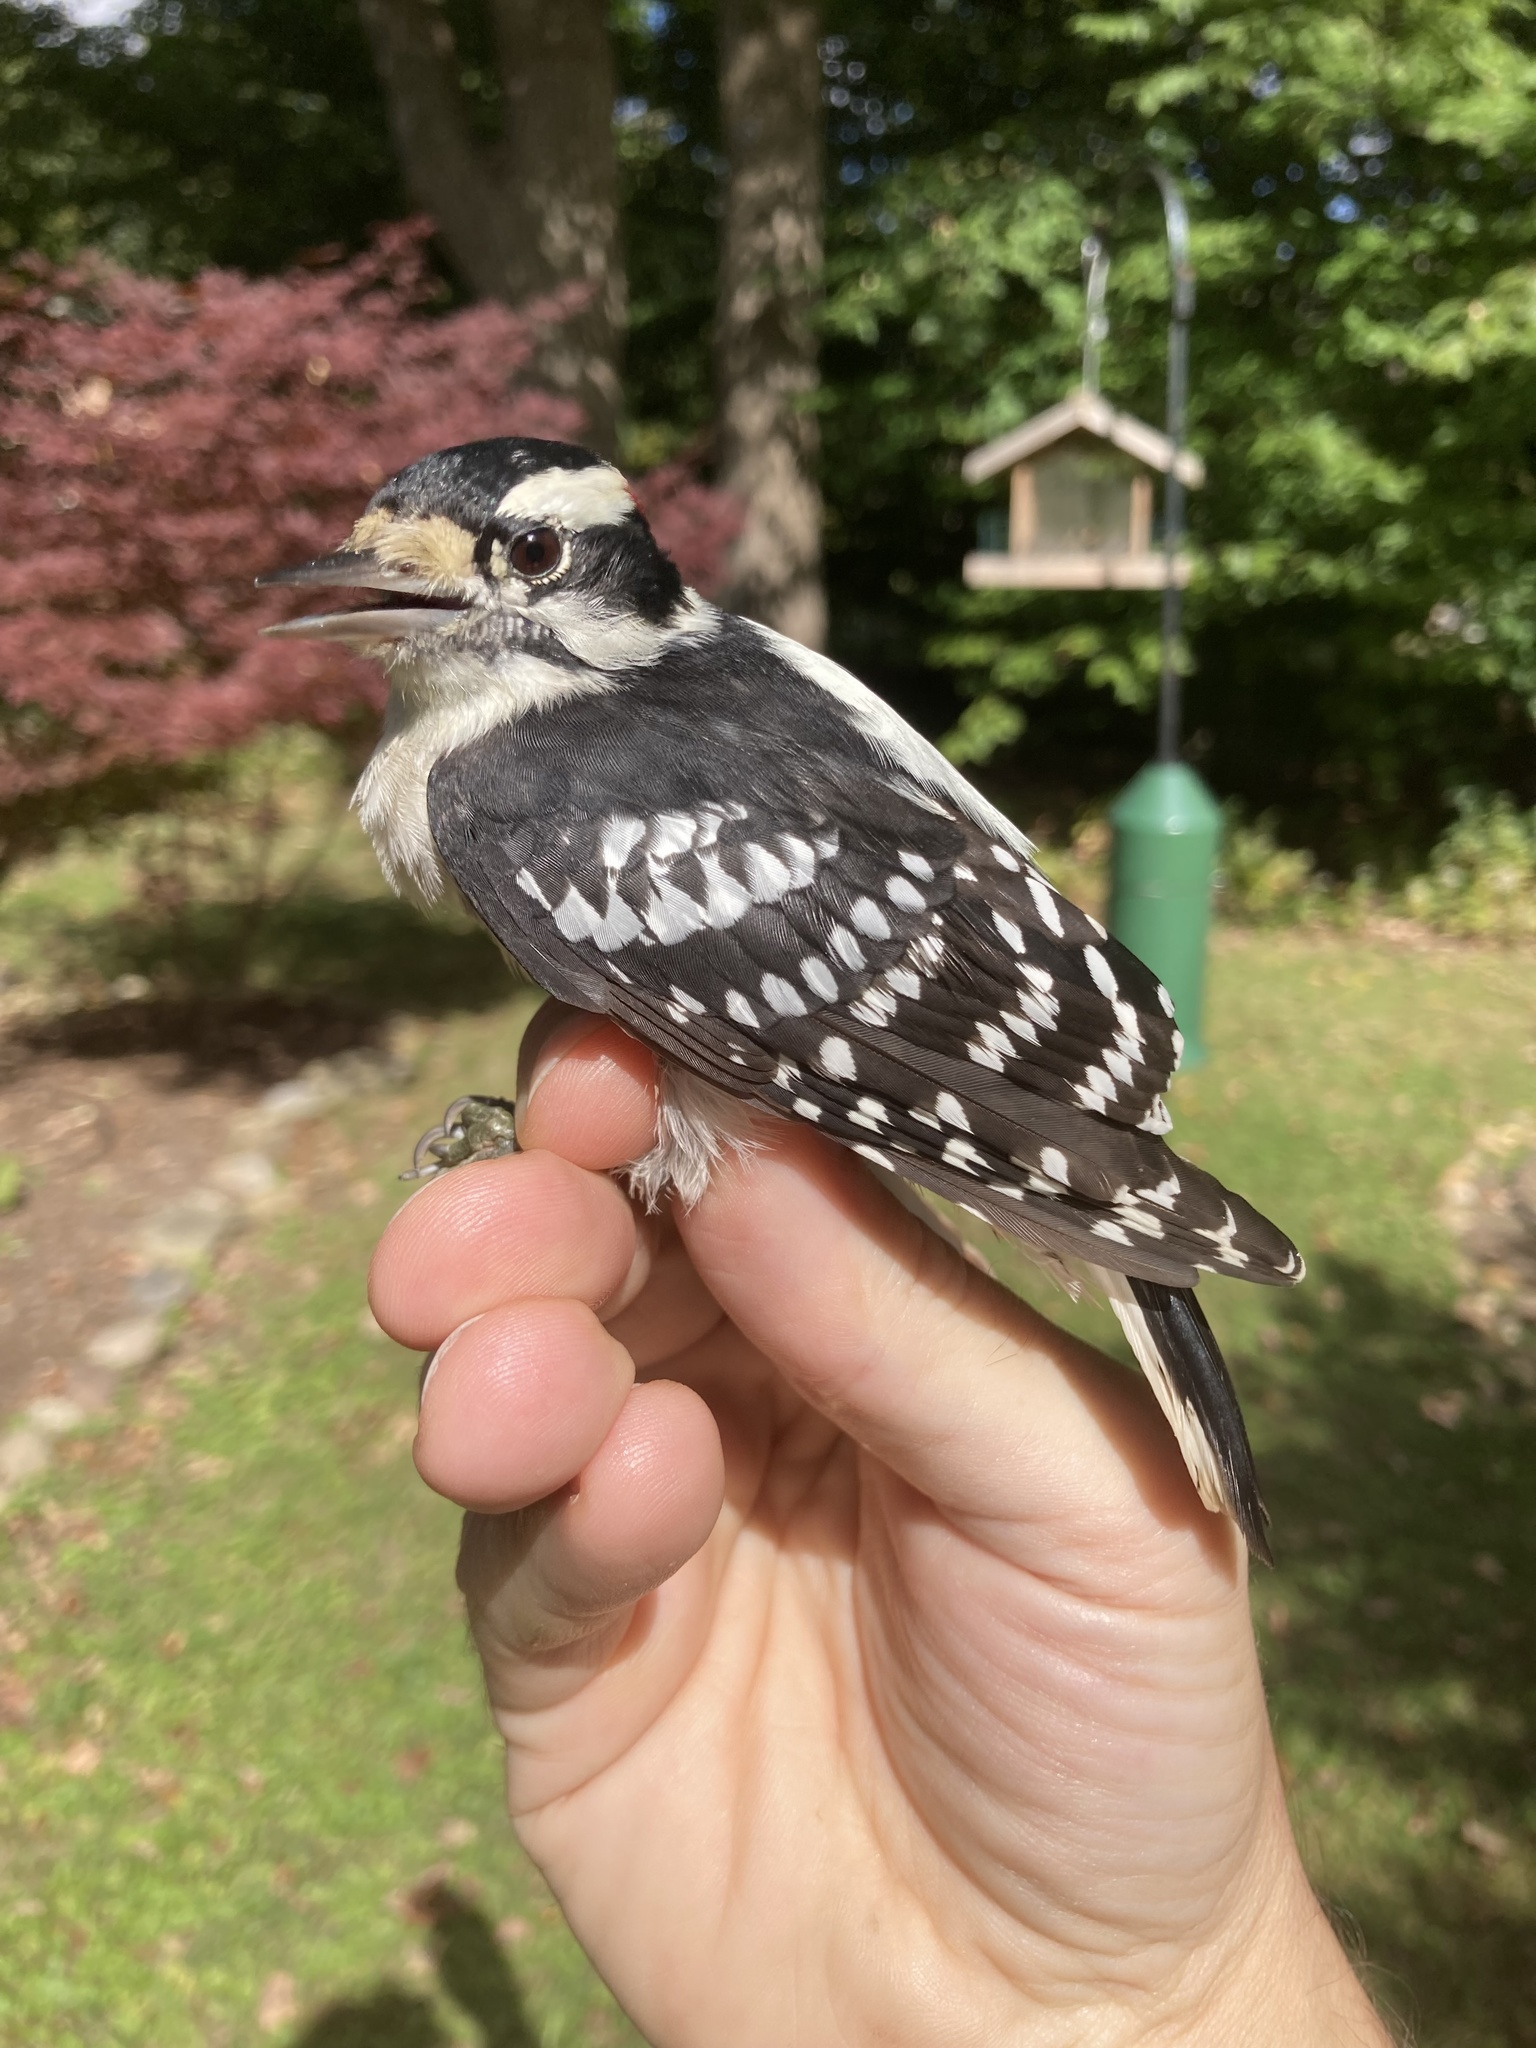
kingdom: Animalia
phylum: Chordata
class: Aves
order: Piciformes
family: Picidae
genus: Dryobates
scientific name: Dryobates pubescens
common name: Downy woodpecker
